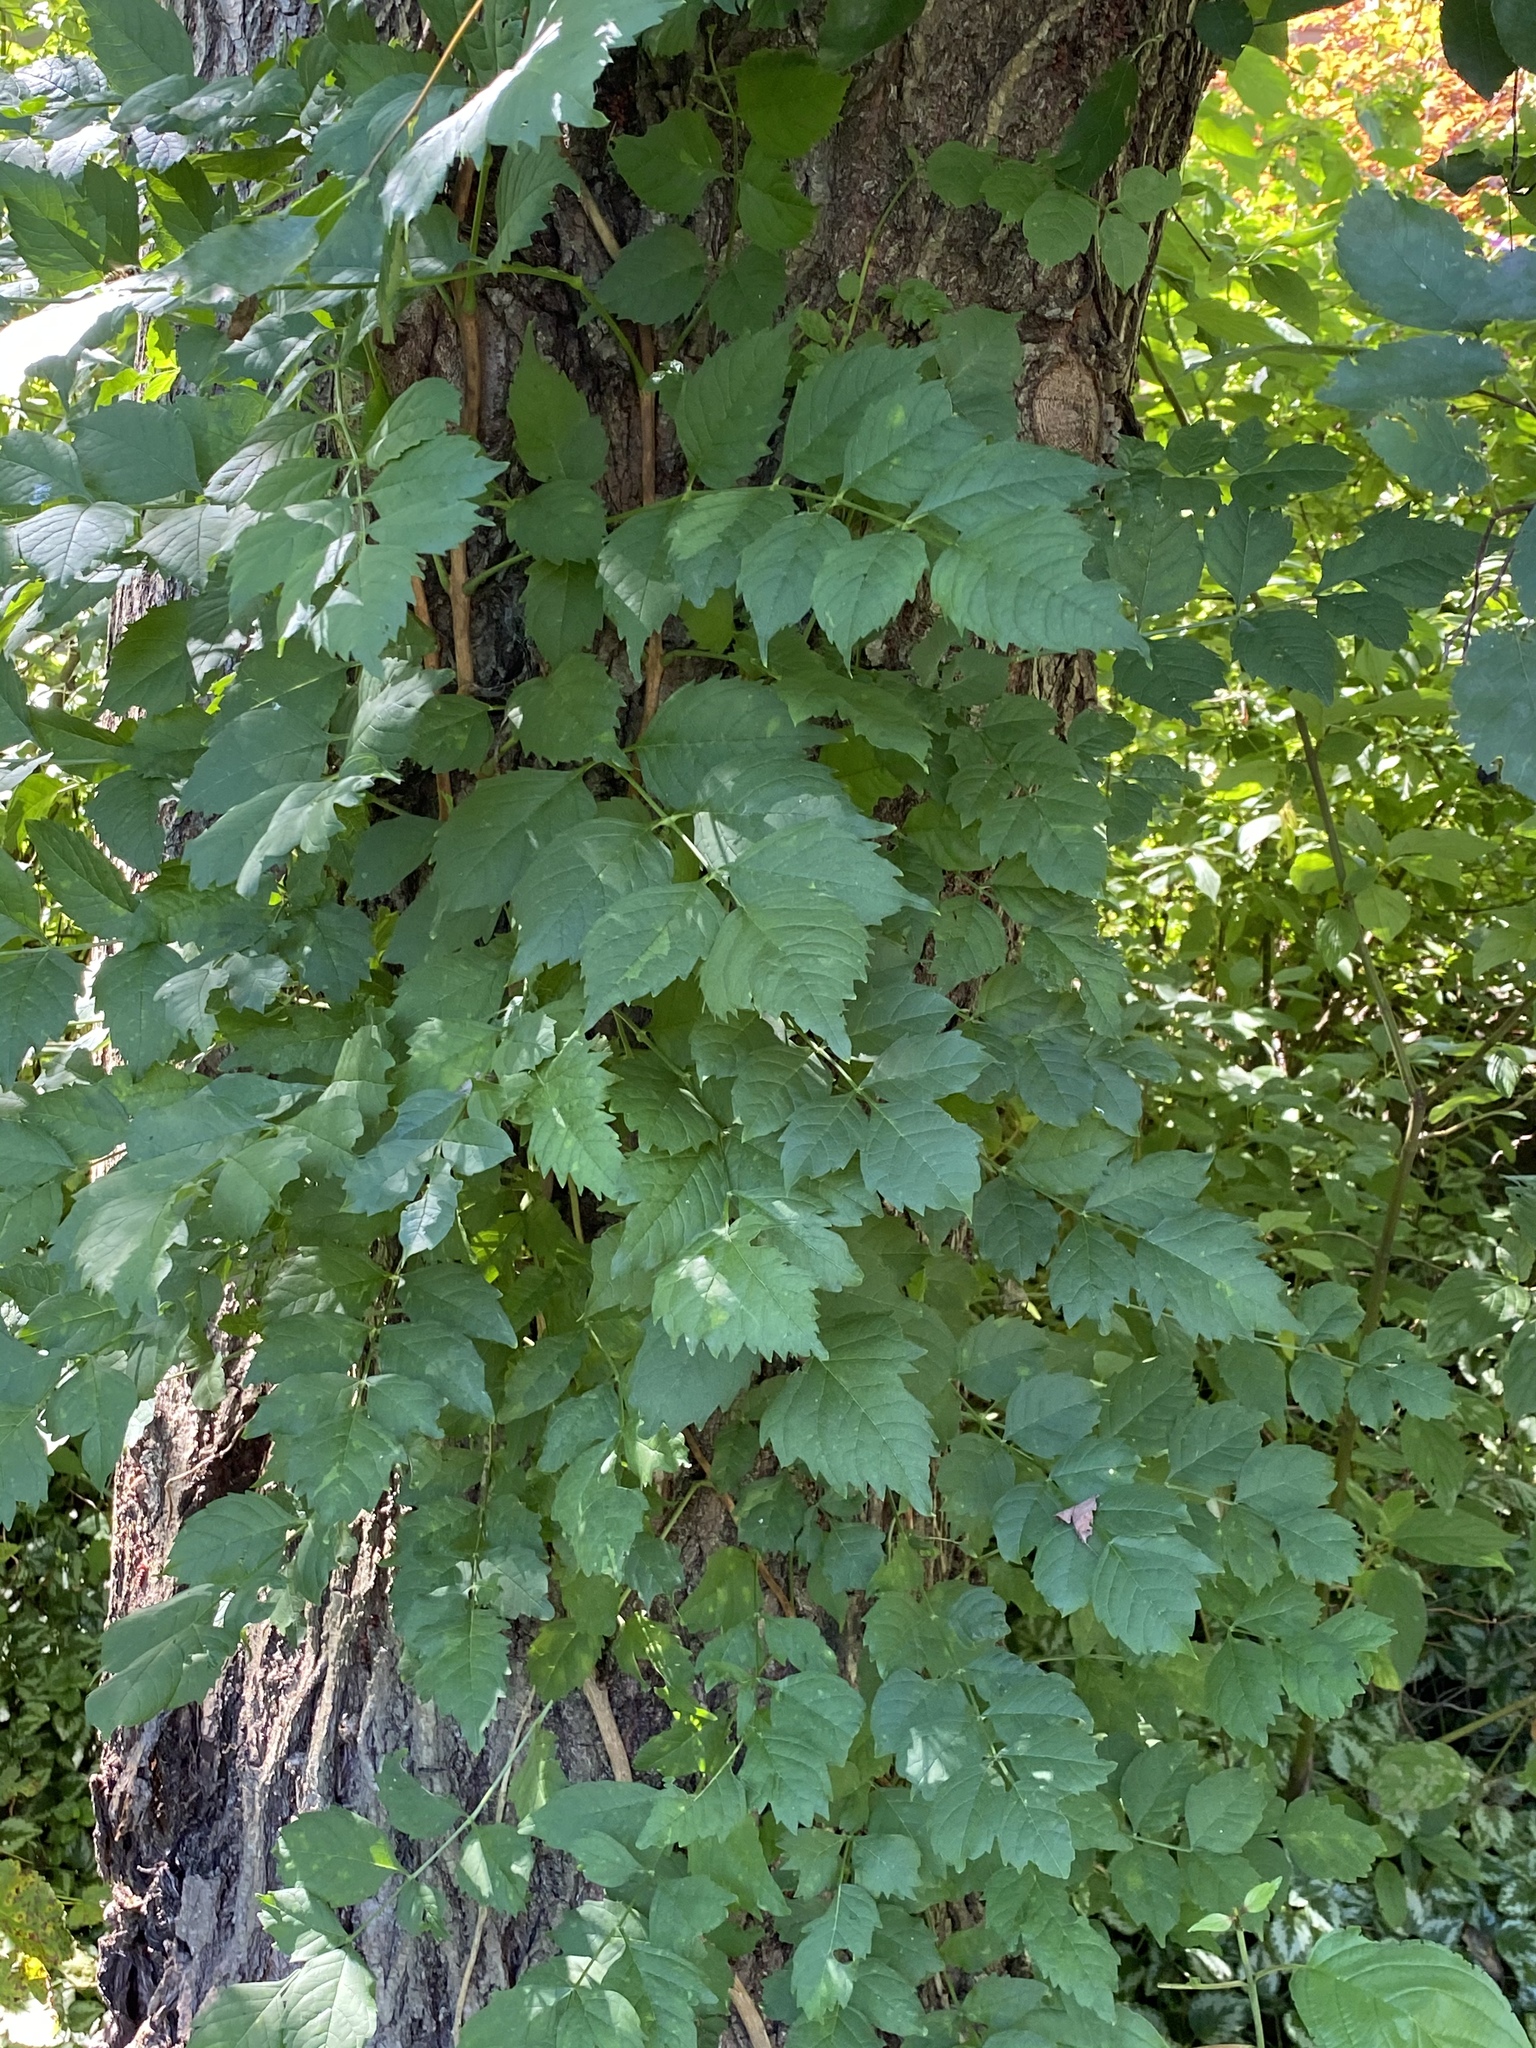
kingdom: Plantae
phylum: Tracheophyta
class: Magnoliopsida
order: Lamiales
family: Bignoniaceae
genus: Campsis
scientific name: Campsis radicans
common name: Trumpet-creeper
